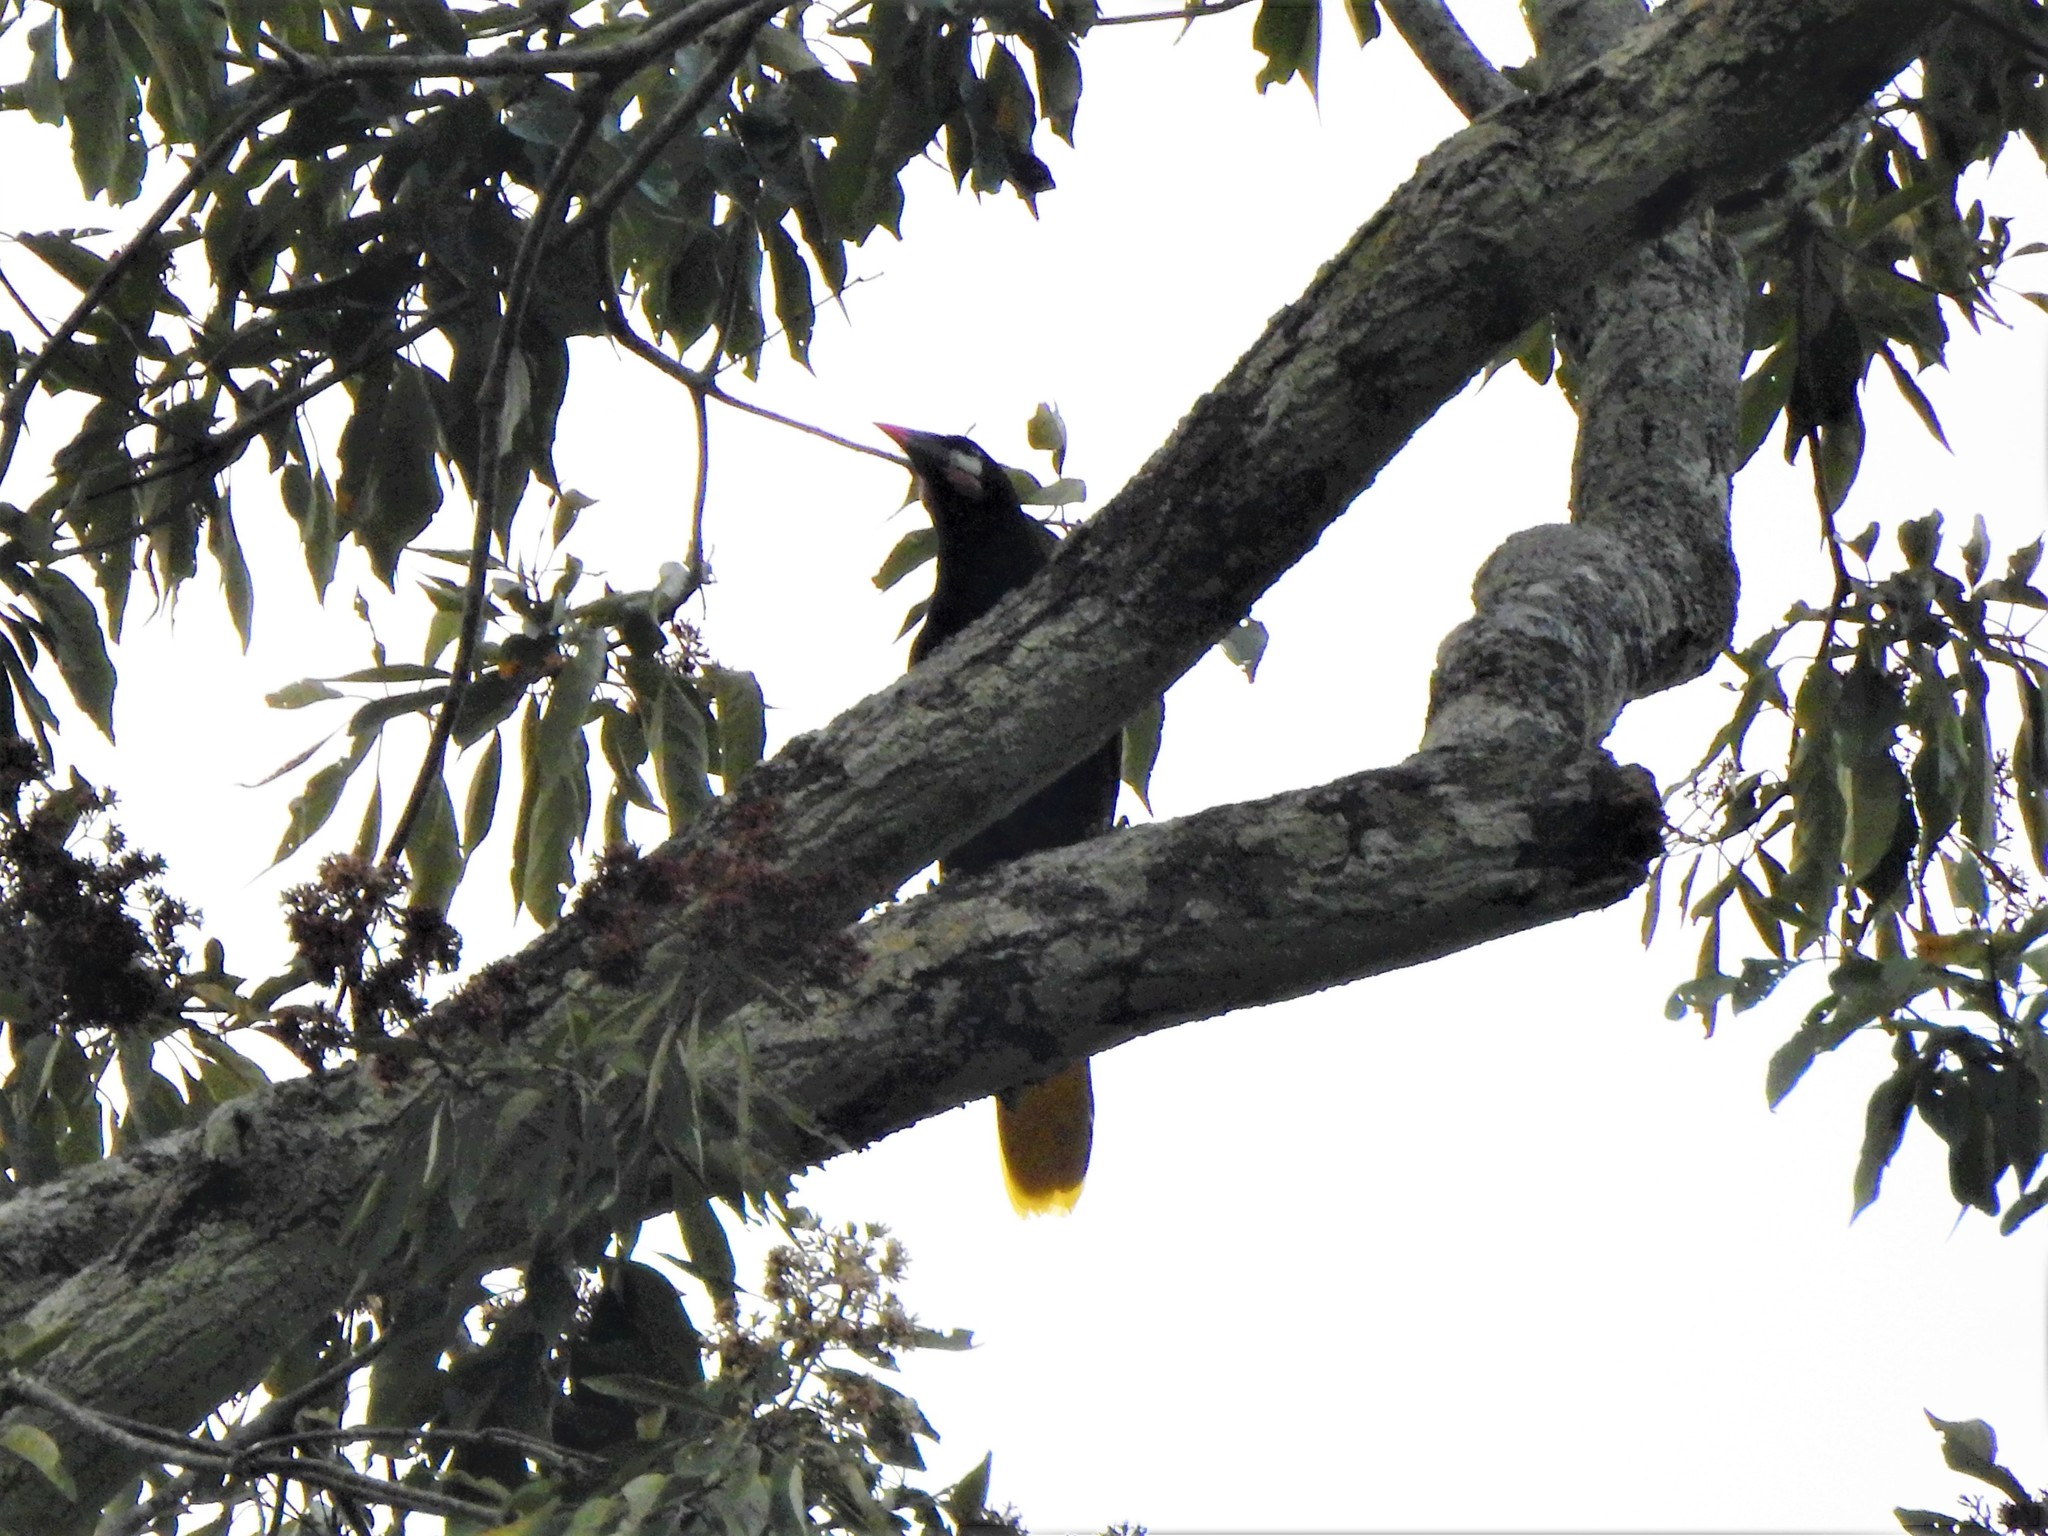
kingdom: Animalia
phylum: Chordata
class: Aves
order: Passeriformes
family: Icteridae
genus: Psarocolius
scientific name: Psarocolius montezuma
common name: Montezuma oropendola
